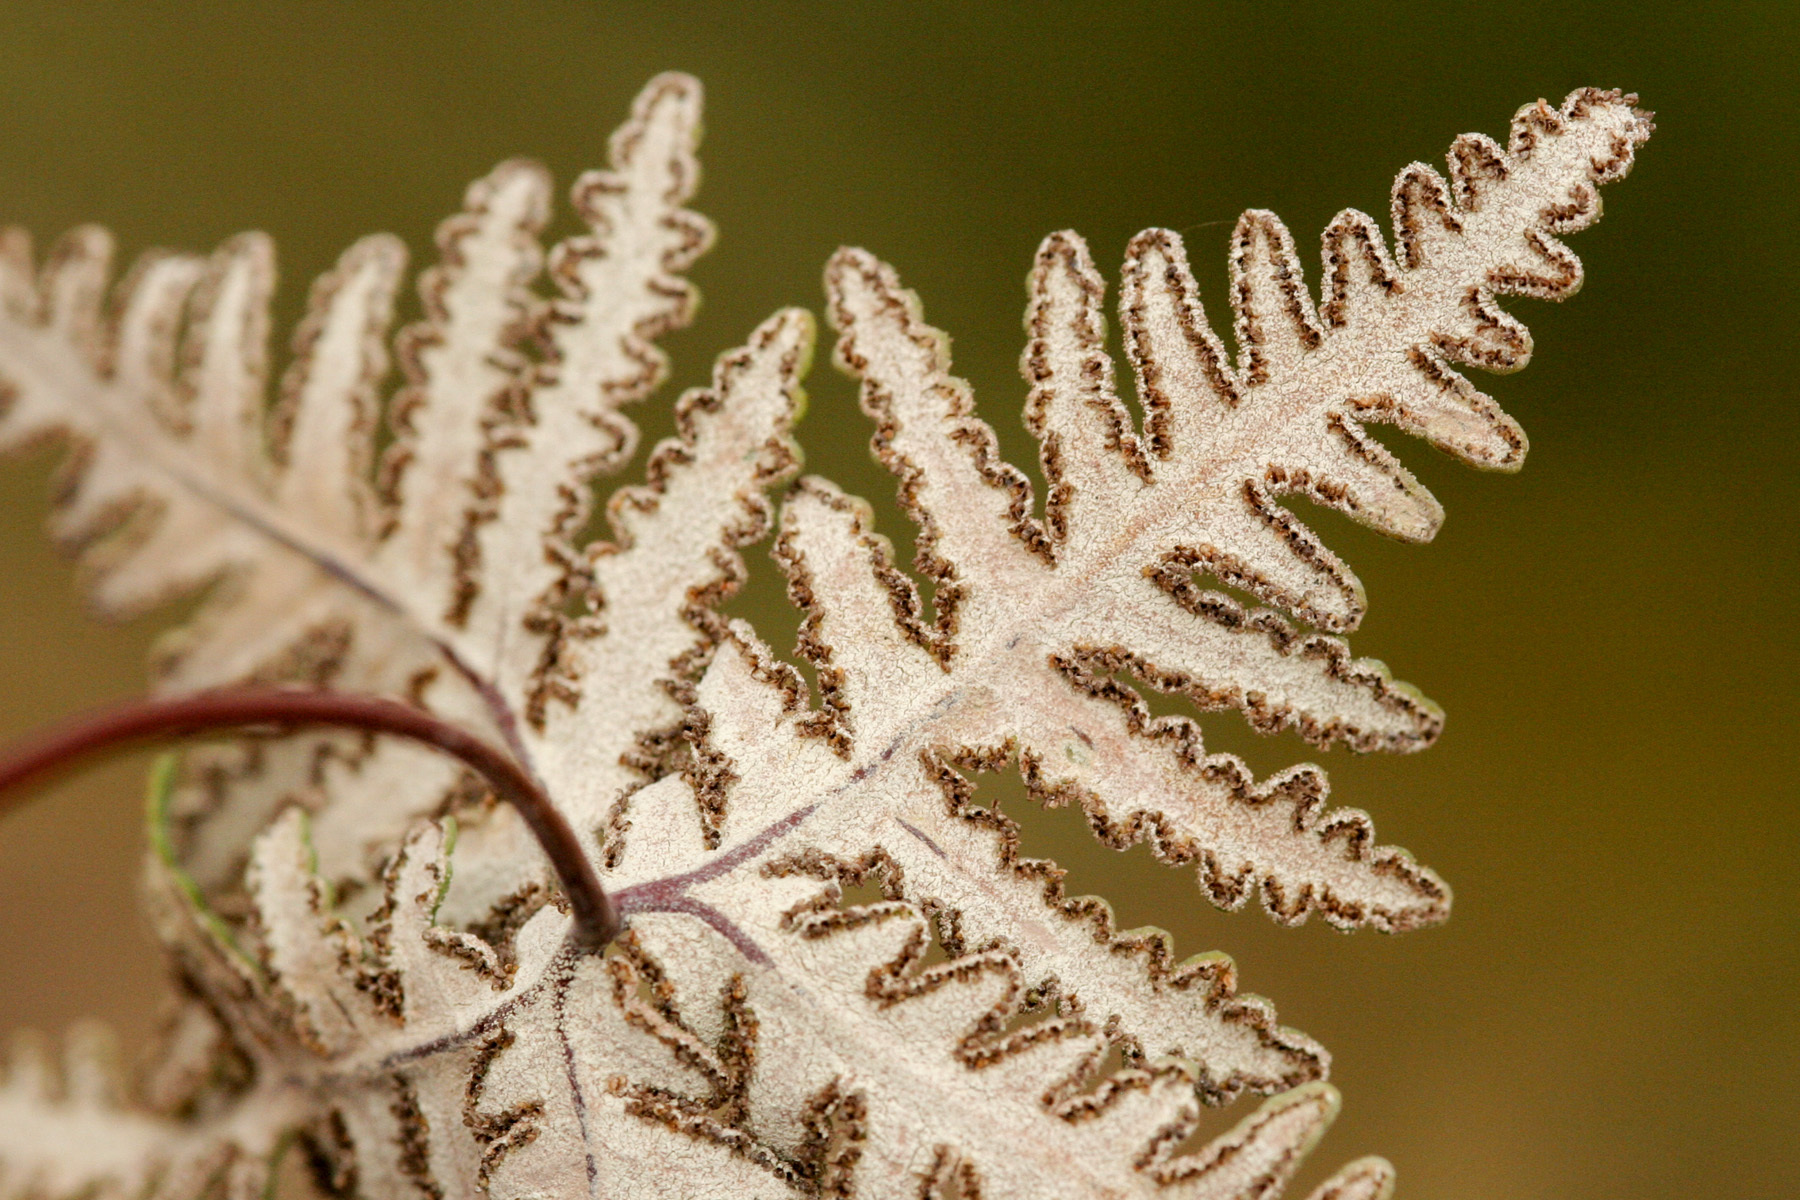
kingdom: Plantae
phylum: Tracheophyta
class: Polypodiopsida
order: Polypodiales
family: Pteridaceae
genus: Notholaena
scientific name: Notholaena standleyi
